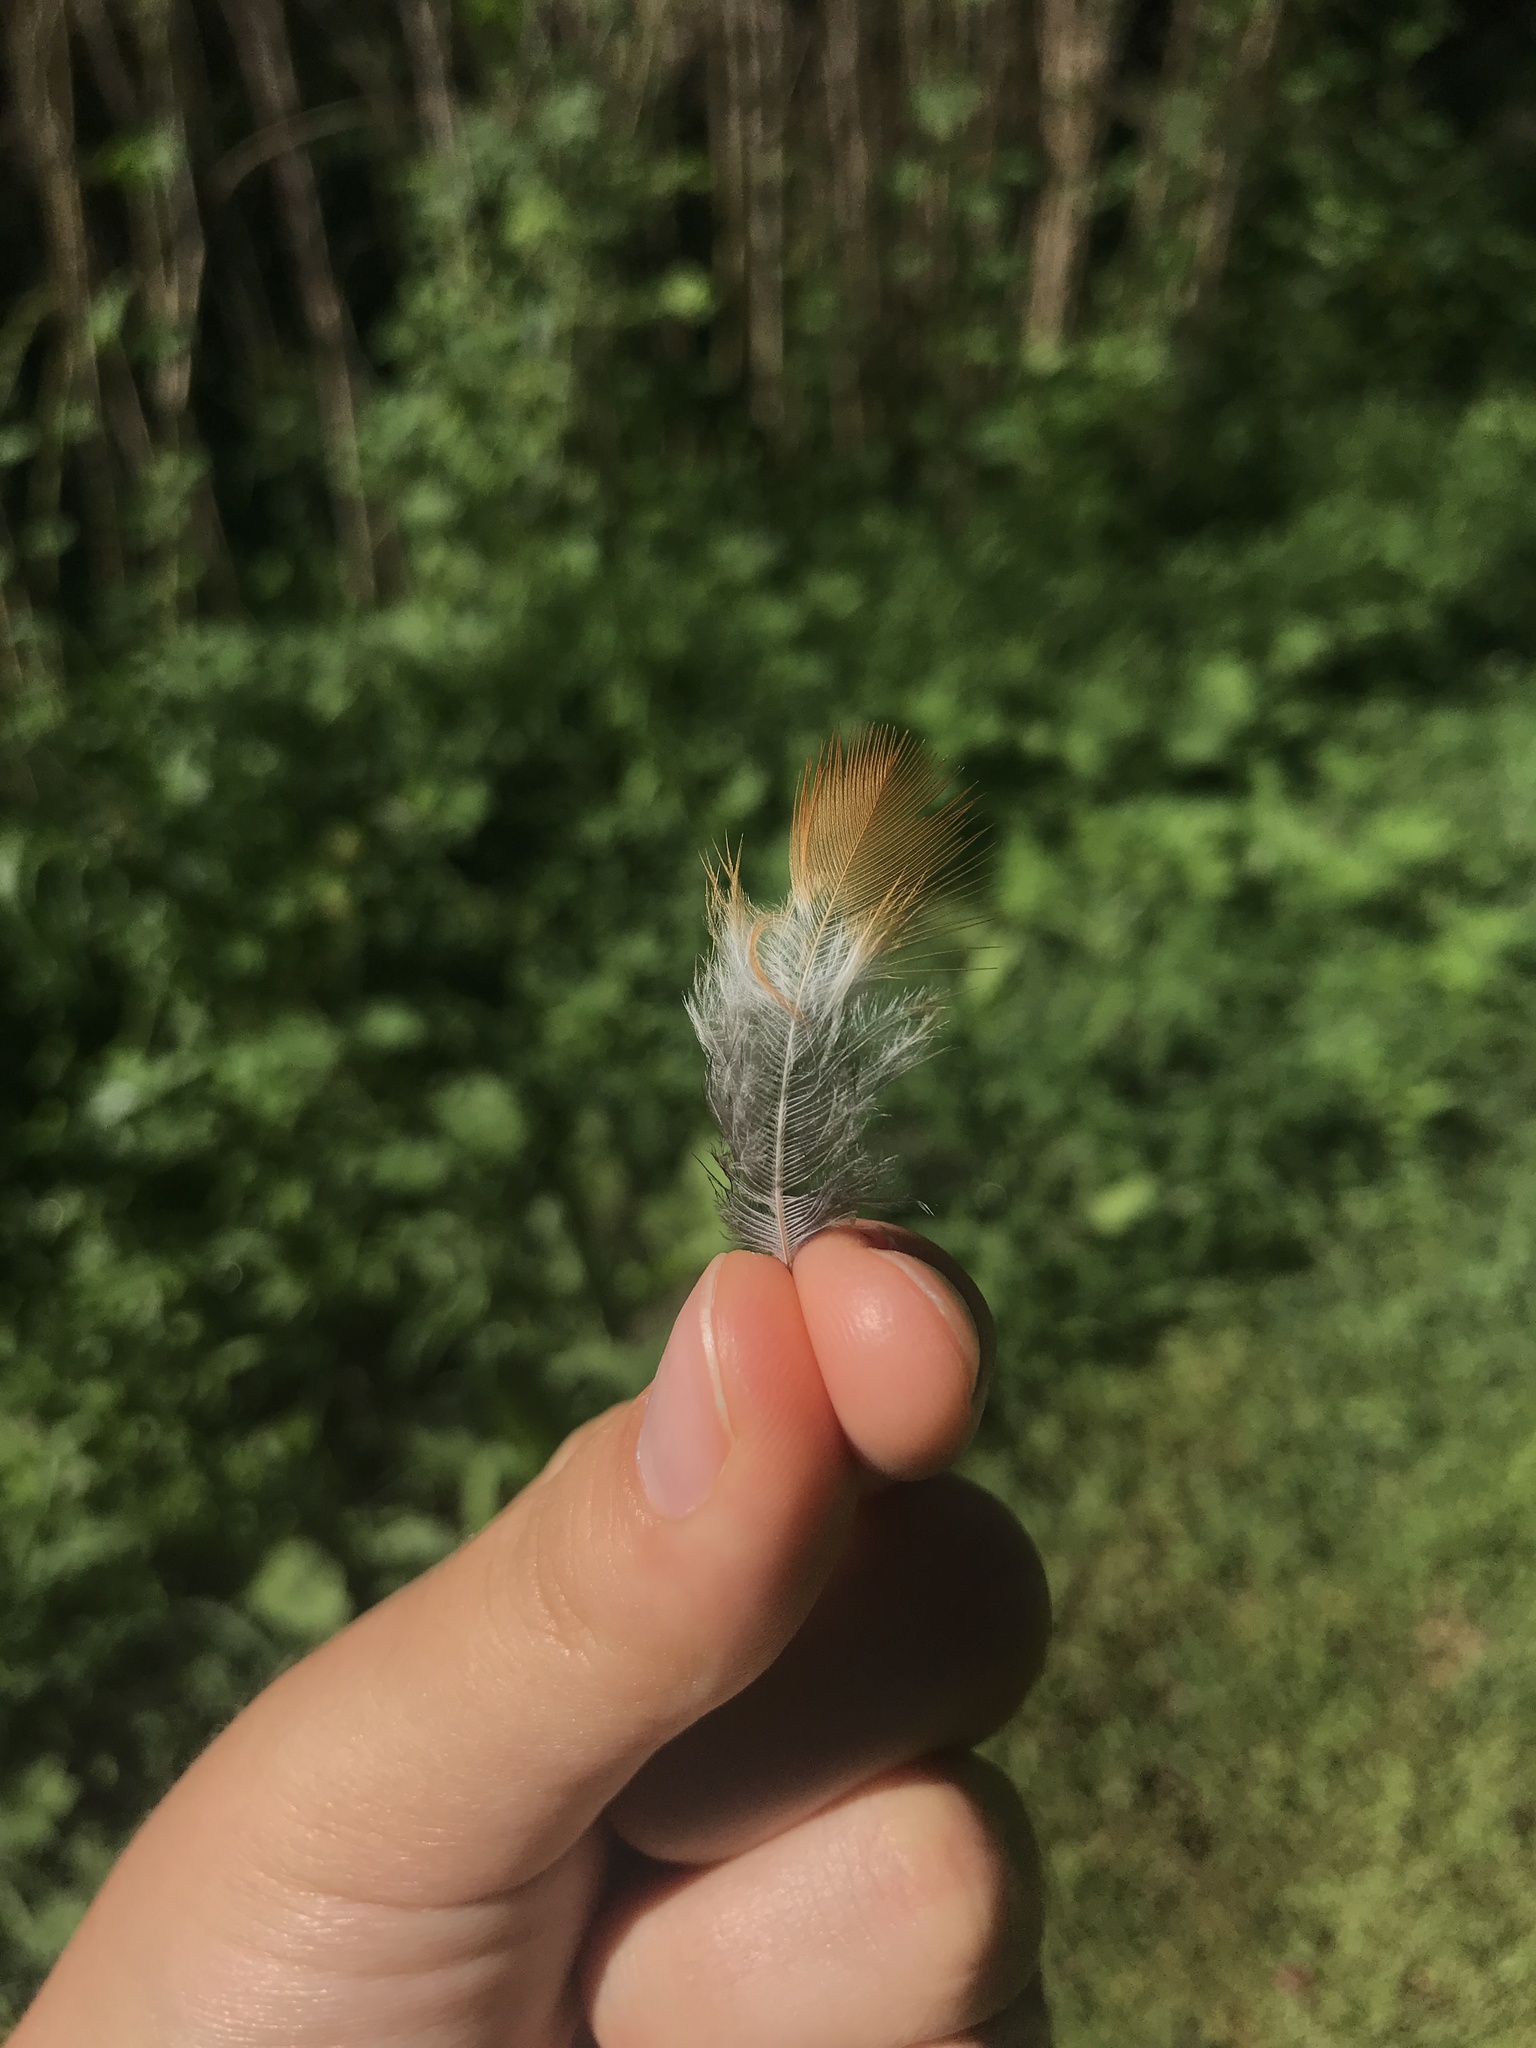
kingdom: Animalia
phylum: Chordata
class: Aves
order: Passeriformes
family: Turdidae
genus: Turdus
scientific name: Turdus migratorius
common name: American robin
